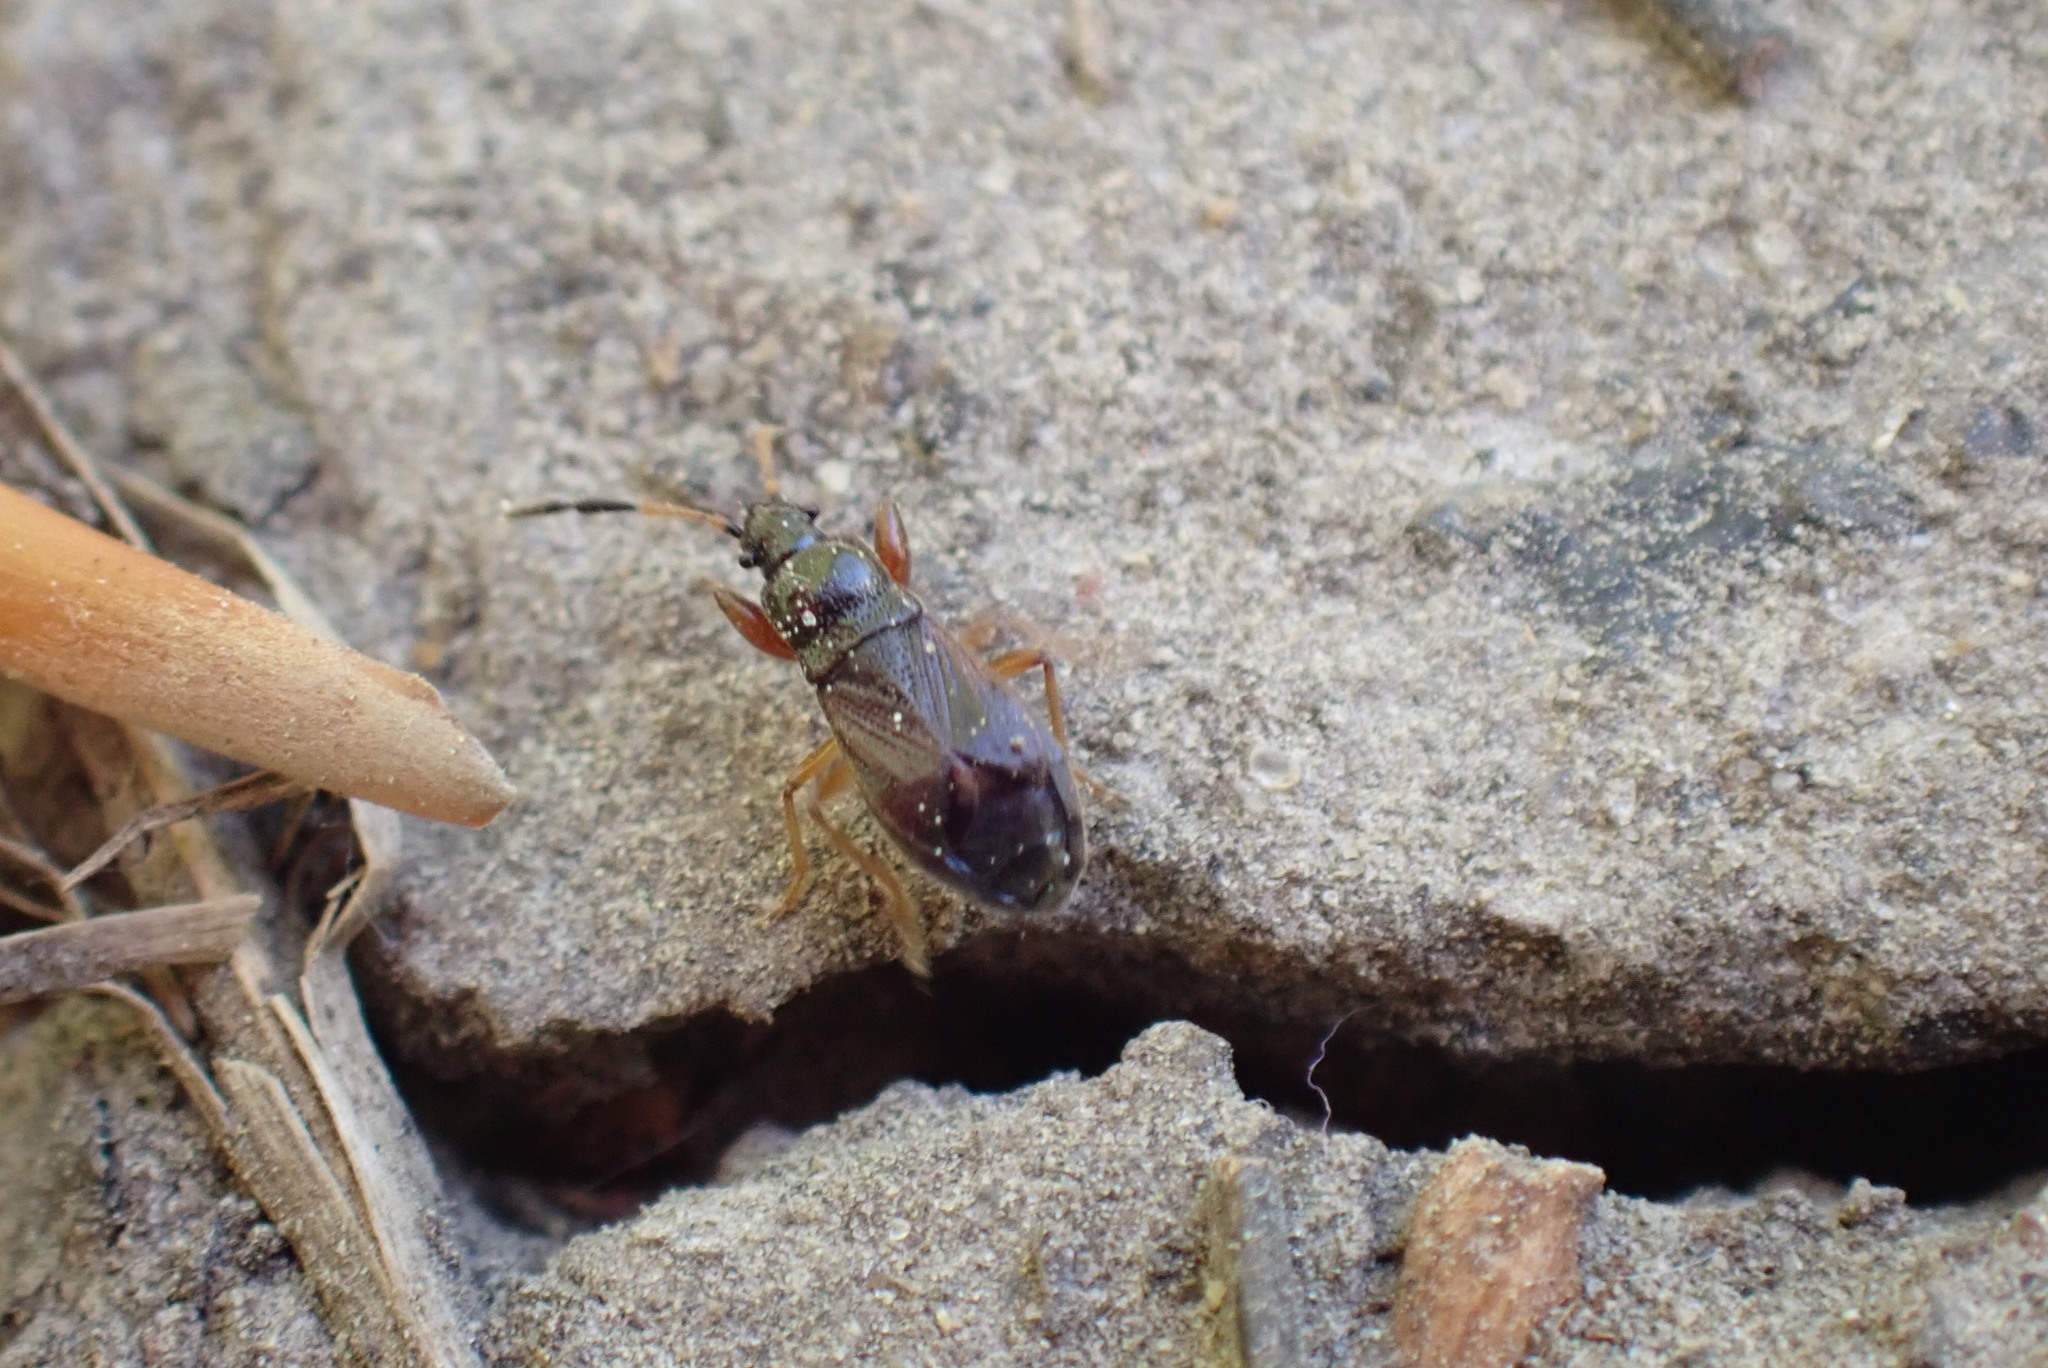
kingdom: Animalia
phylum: Arthropoda
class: Insecta
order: Hemiptera
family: Rhyparochromidae
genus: Megalonotus
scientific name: Megalonotus antennatus
